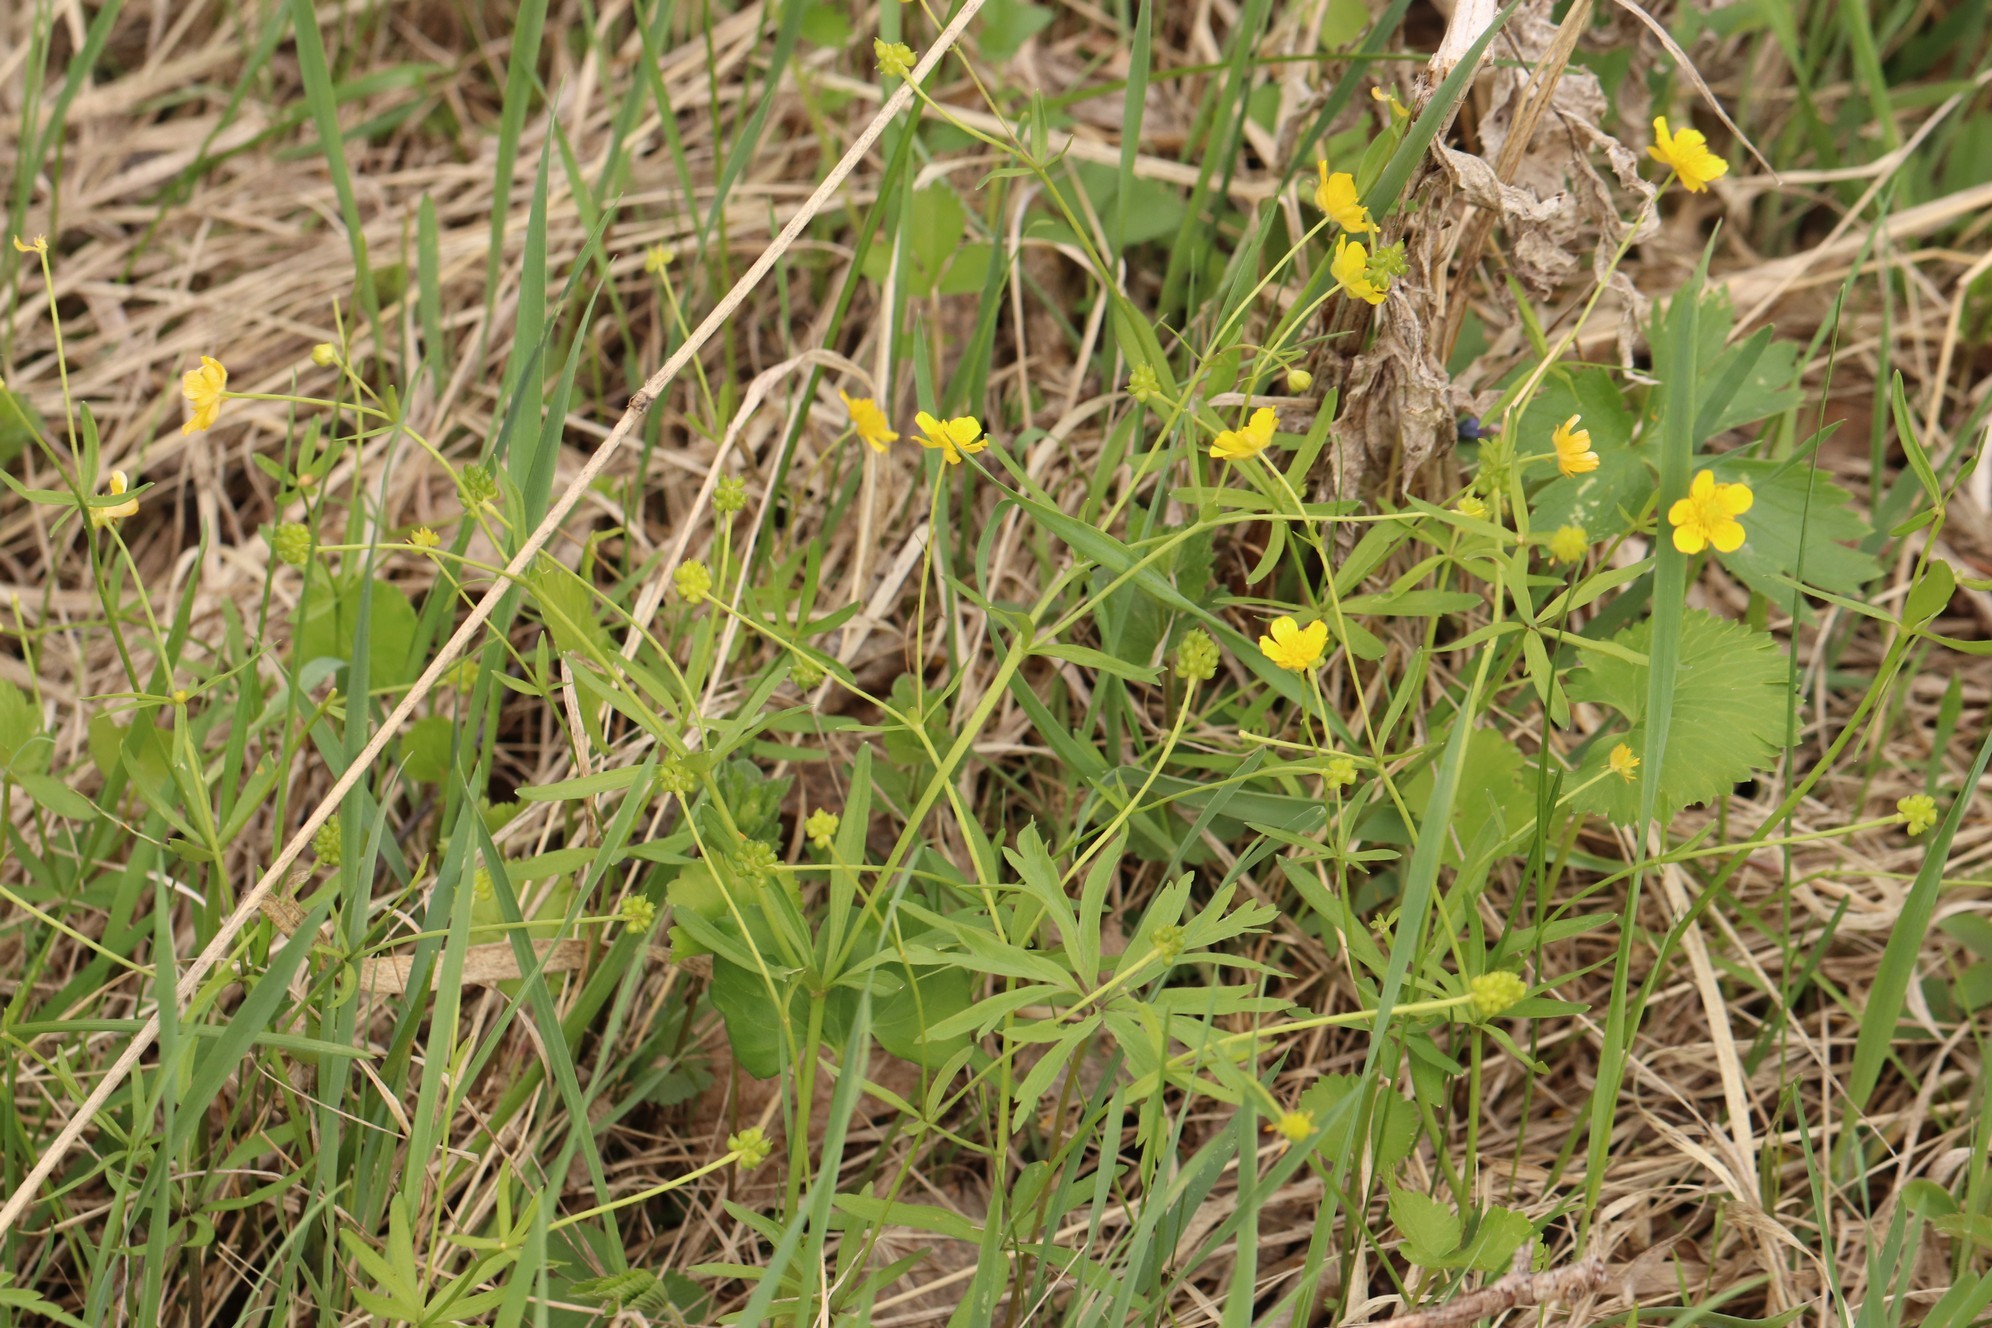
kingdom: Plantae
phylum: Tracheophyta
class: Magnoliopsida
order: Ranunculales
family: Ranunculaceae
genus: Ranunculus
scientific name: Ranunculus monophyllus
